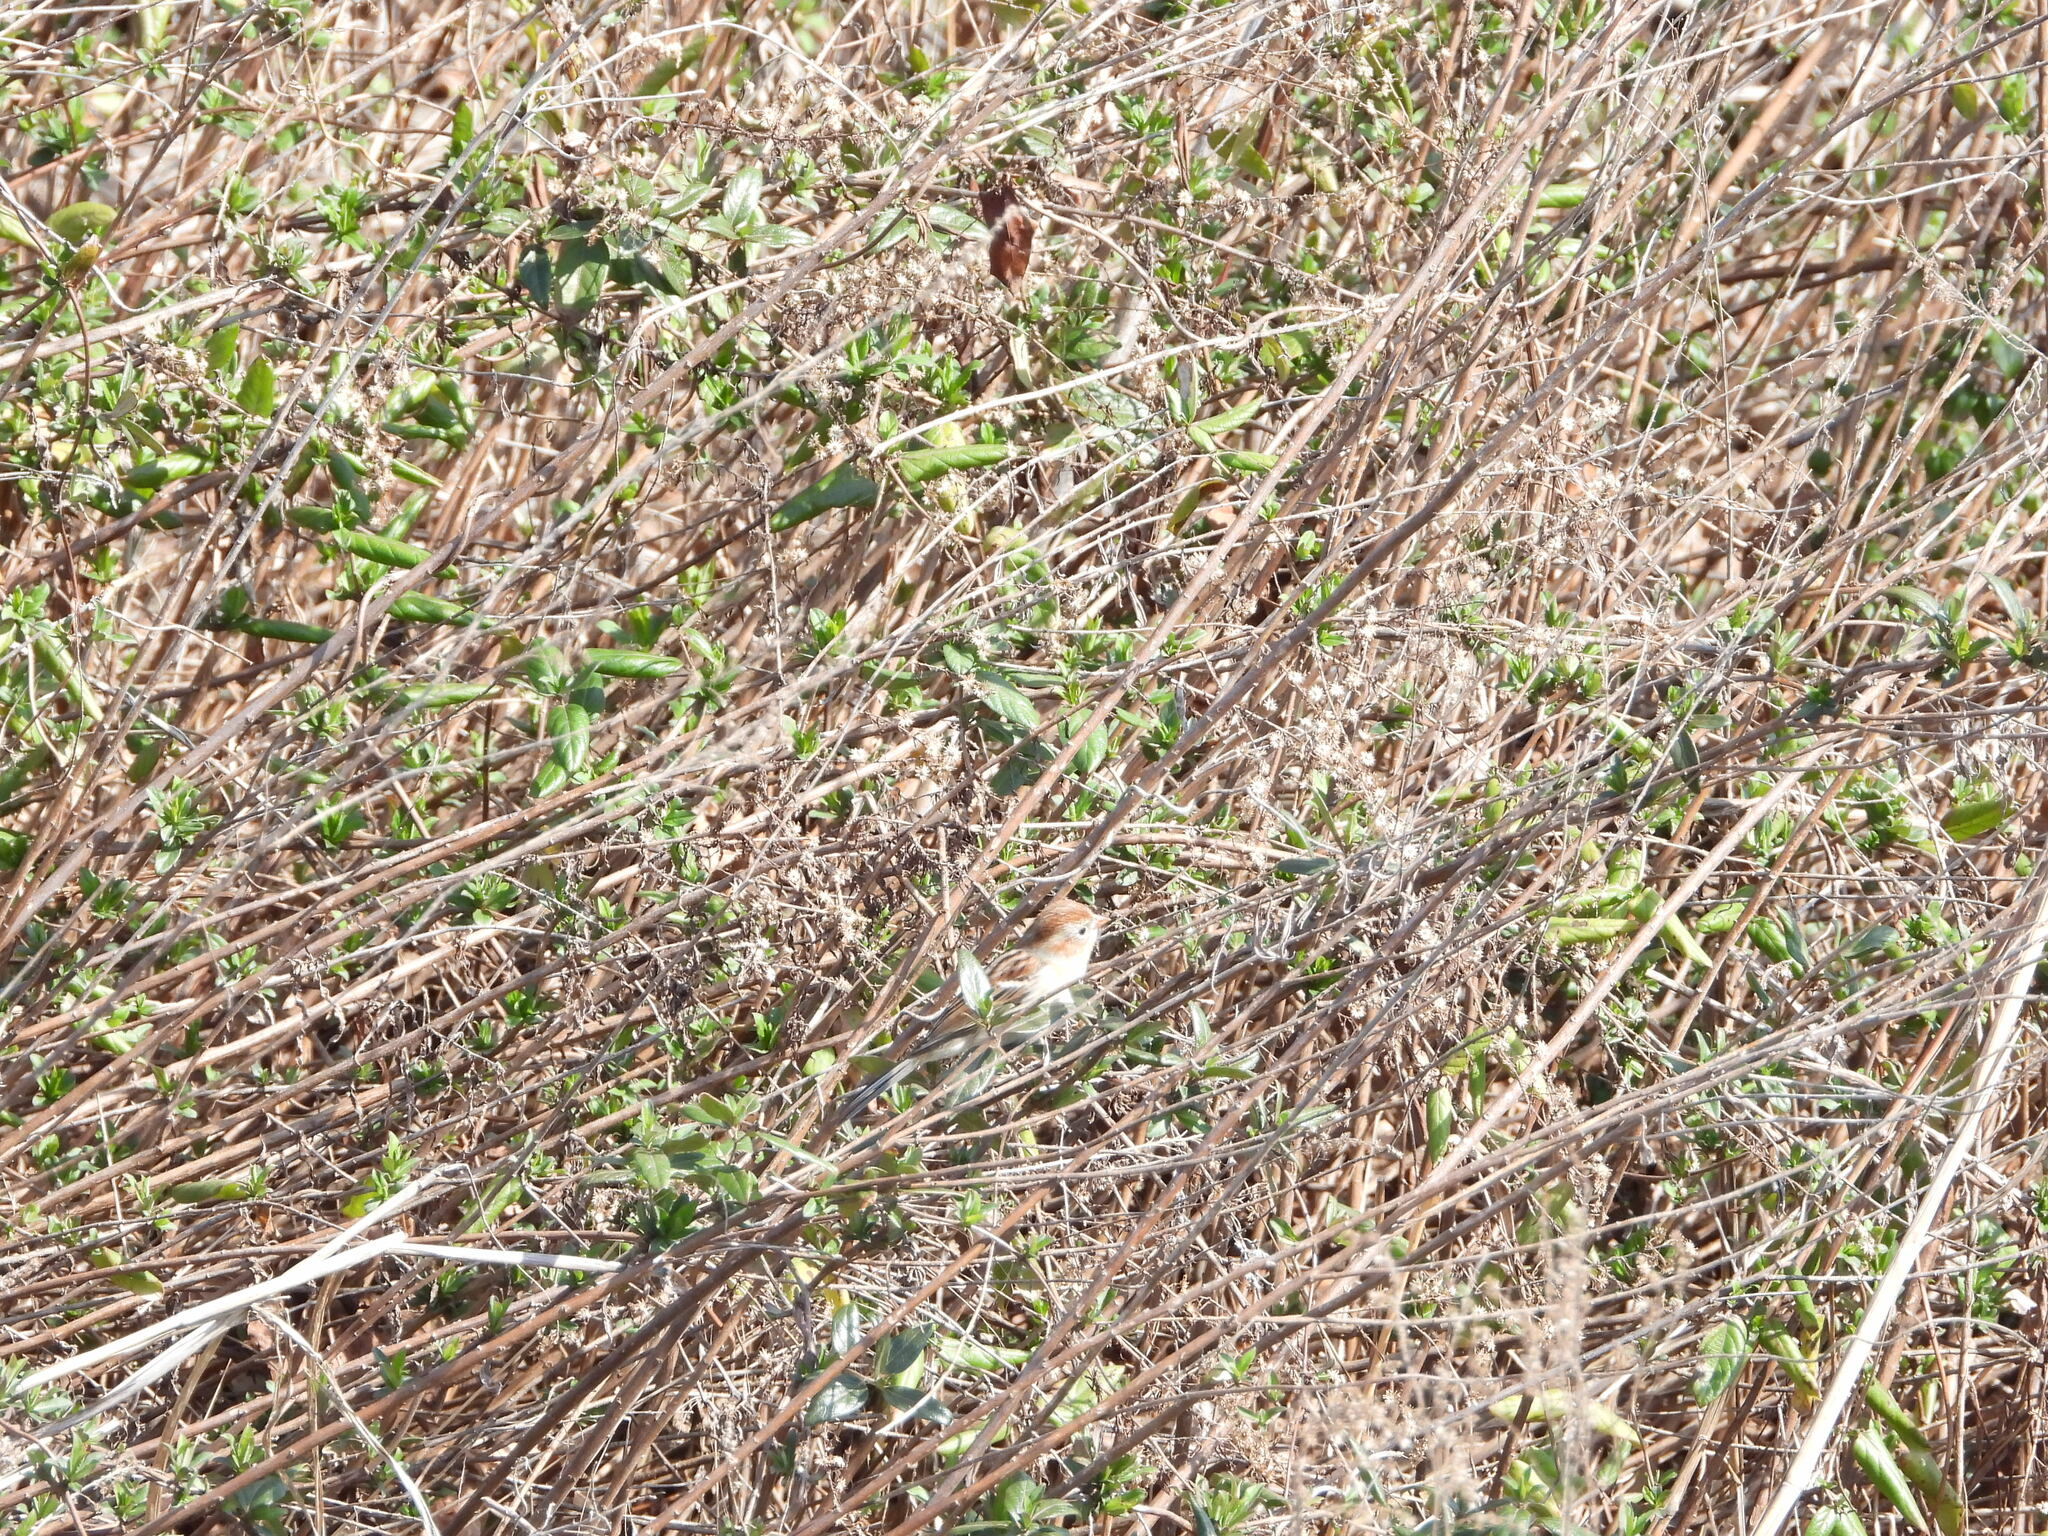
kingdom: Animalia
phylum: Chordata
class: Aves
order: Passeriformes
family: Passerellidae
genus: Spizella
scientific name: Spizella pusilla
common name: Field sparrow
